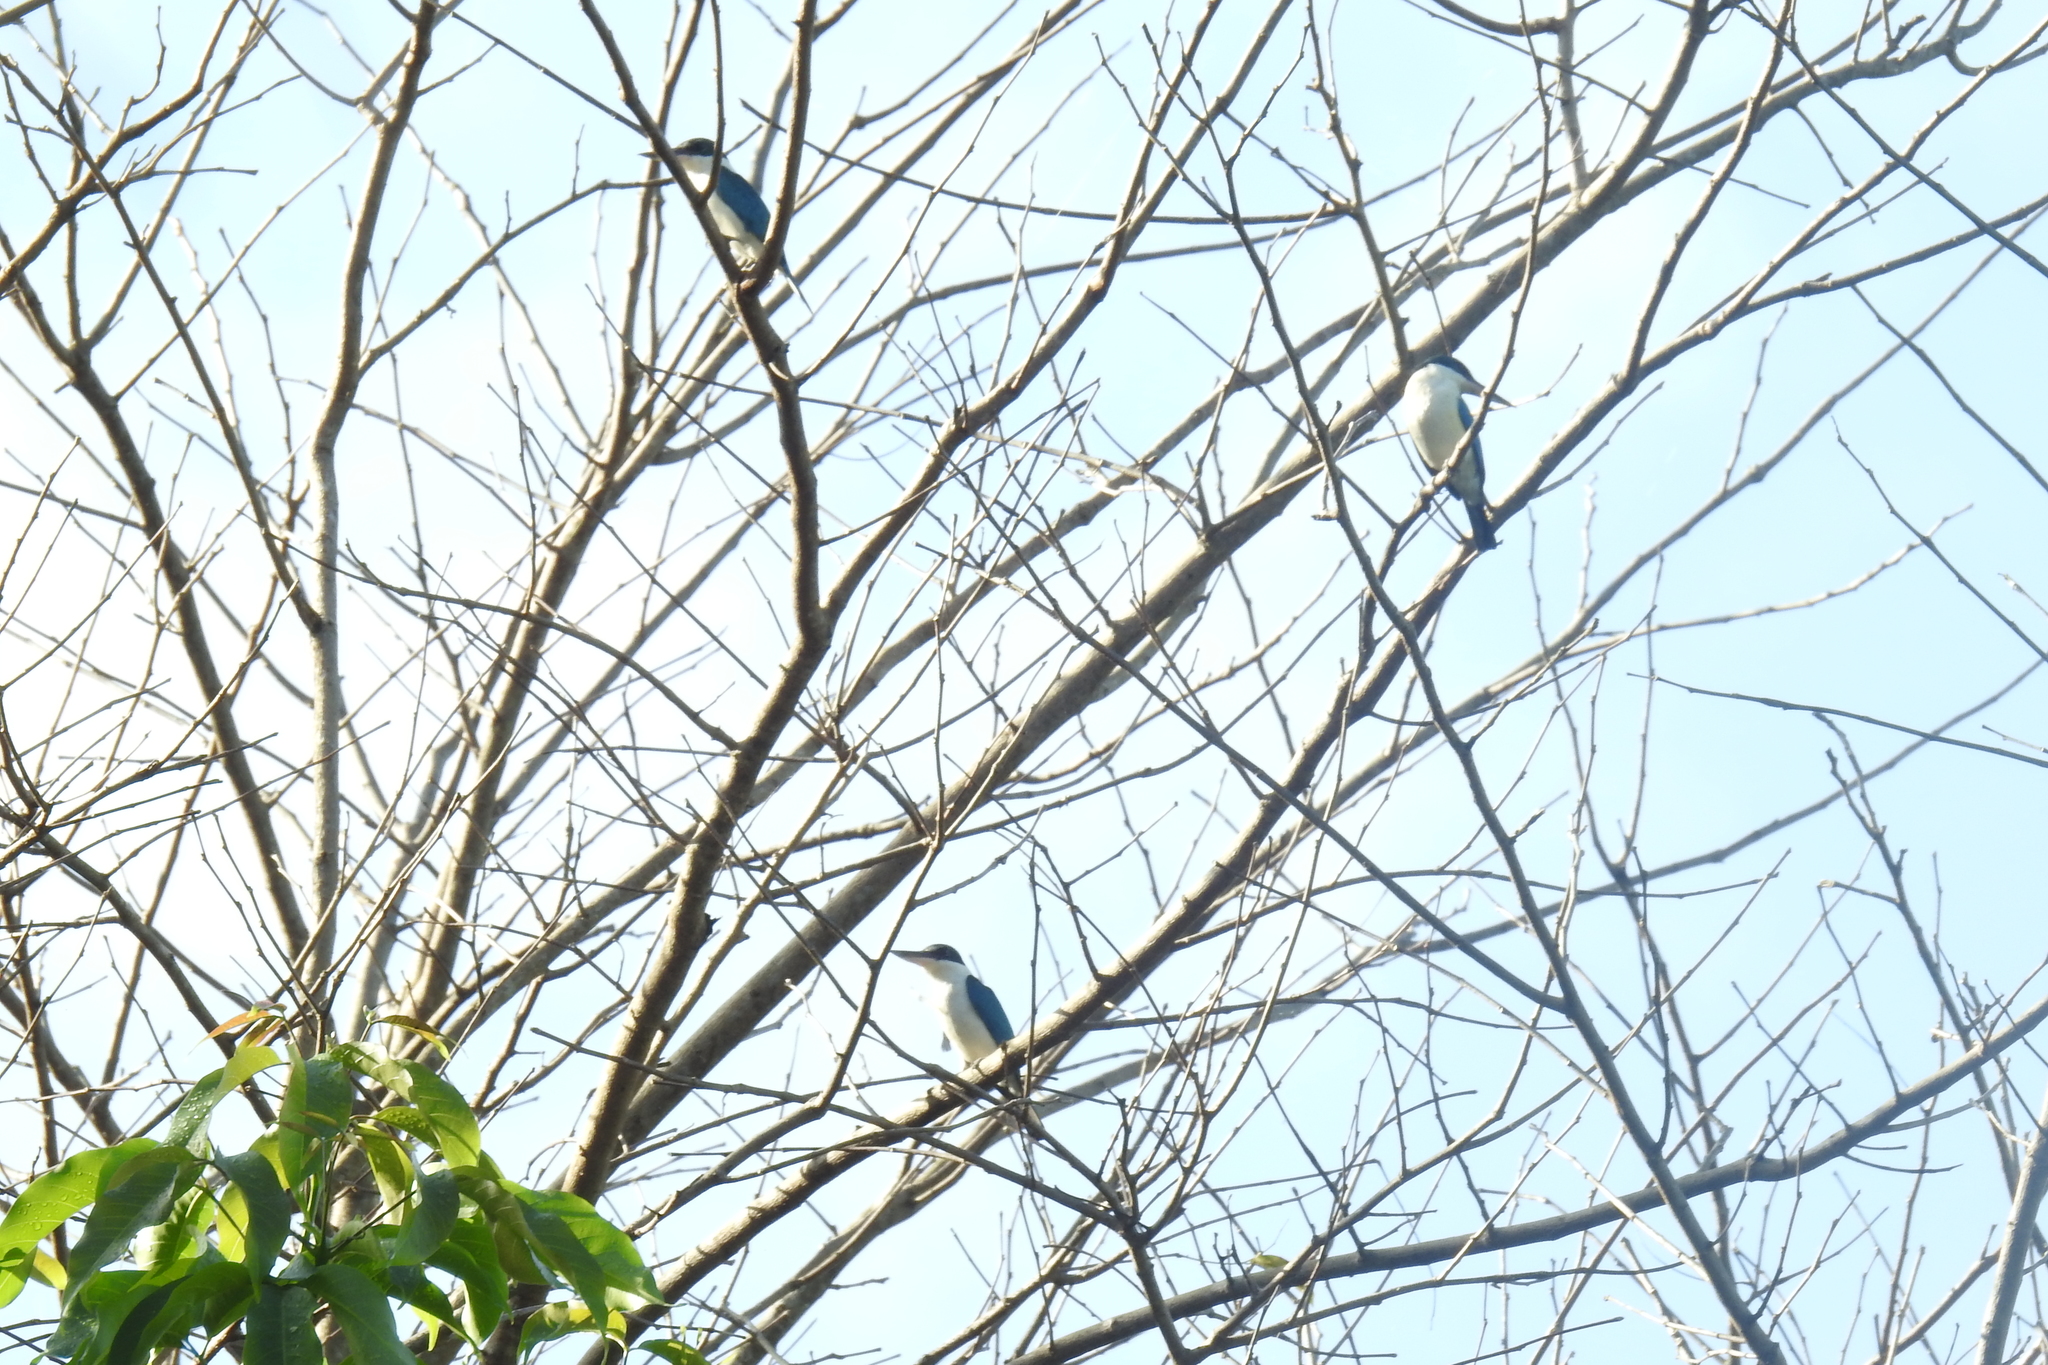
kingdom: Animalia
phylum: Chordata
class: Aves
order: Coraciiformes
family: Alcedinidae
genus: Todiramphus
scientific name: Todiramphus chloris
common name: Collared kingfisher
